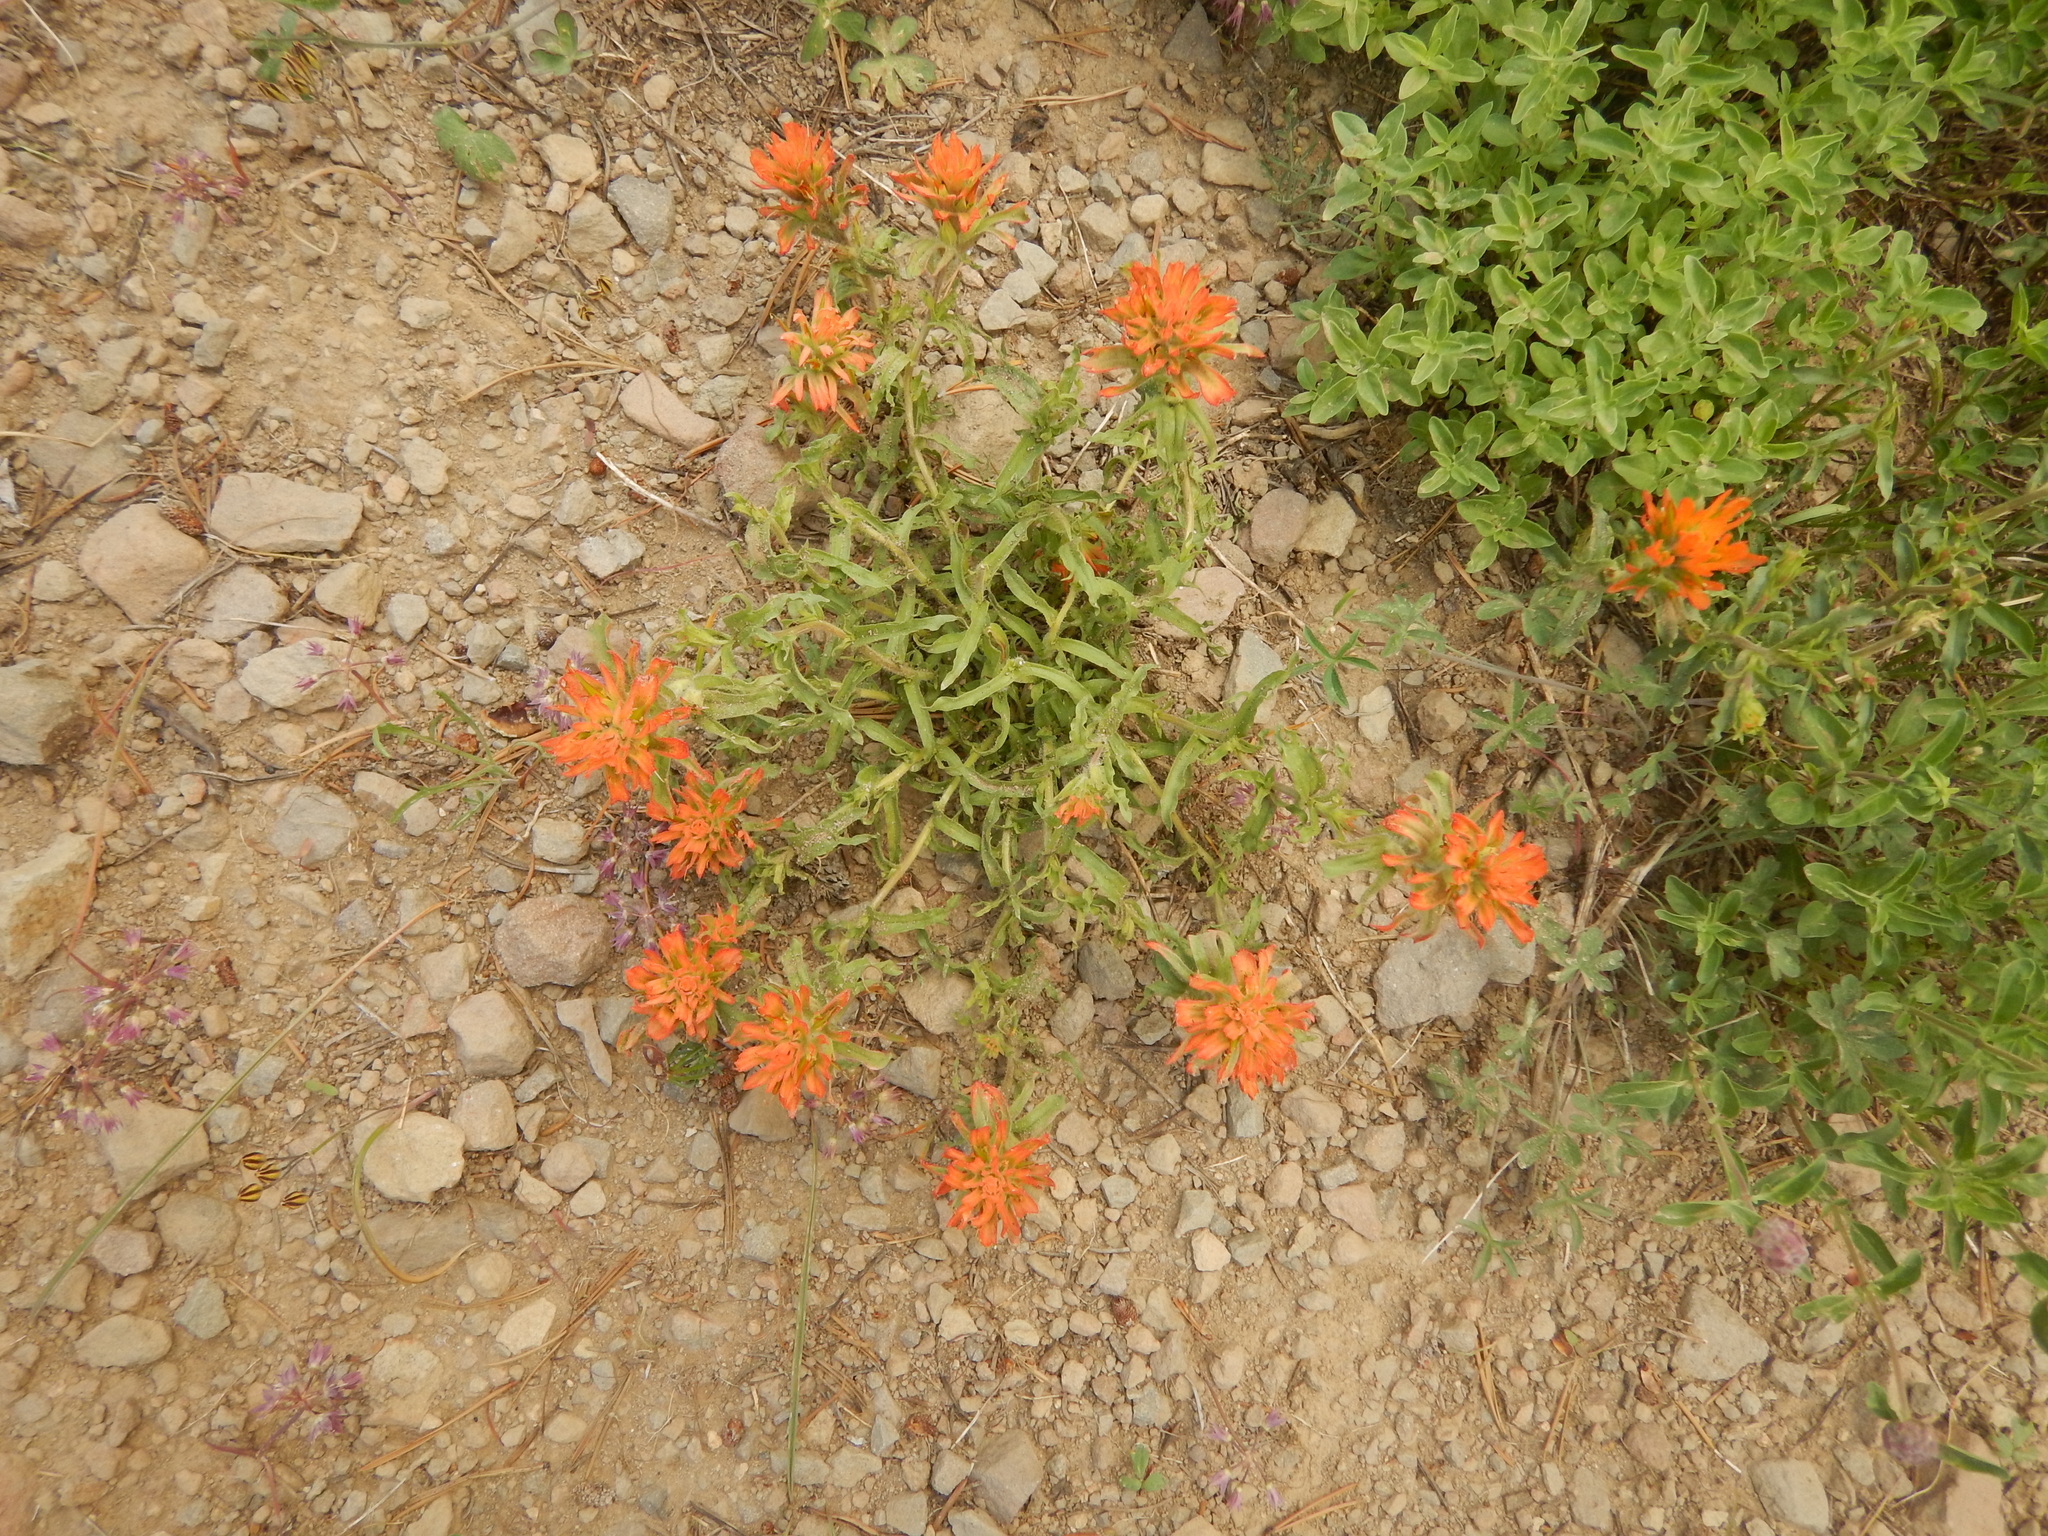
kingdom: Plantae
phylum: Tracheophyta
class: Magnoliopsida
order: Lamiales
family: Orobanchaceae
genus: Castilleja
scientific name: Castilleja applegatei
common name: Wavy-leaf paintbrush
